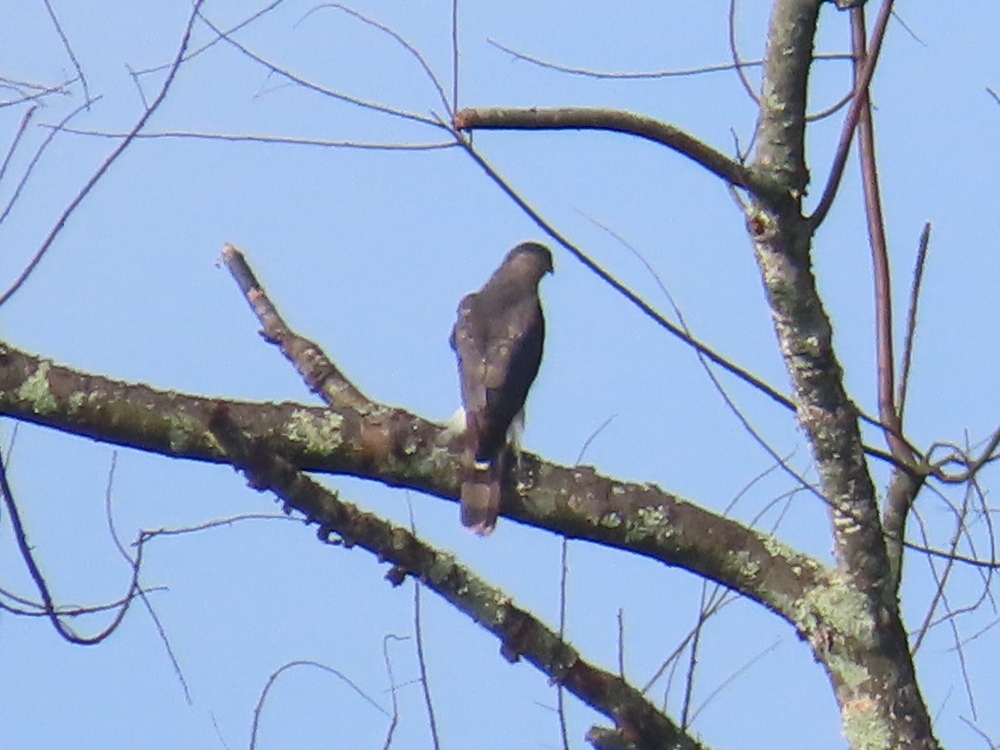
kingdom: Animalia
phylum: Chordata
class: Aves
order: Accipitriformes
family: Accipitridae
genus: Accipiter
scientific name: Accipiter cooperii
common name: Cooper's hawk
